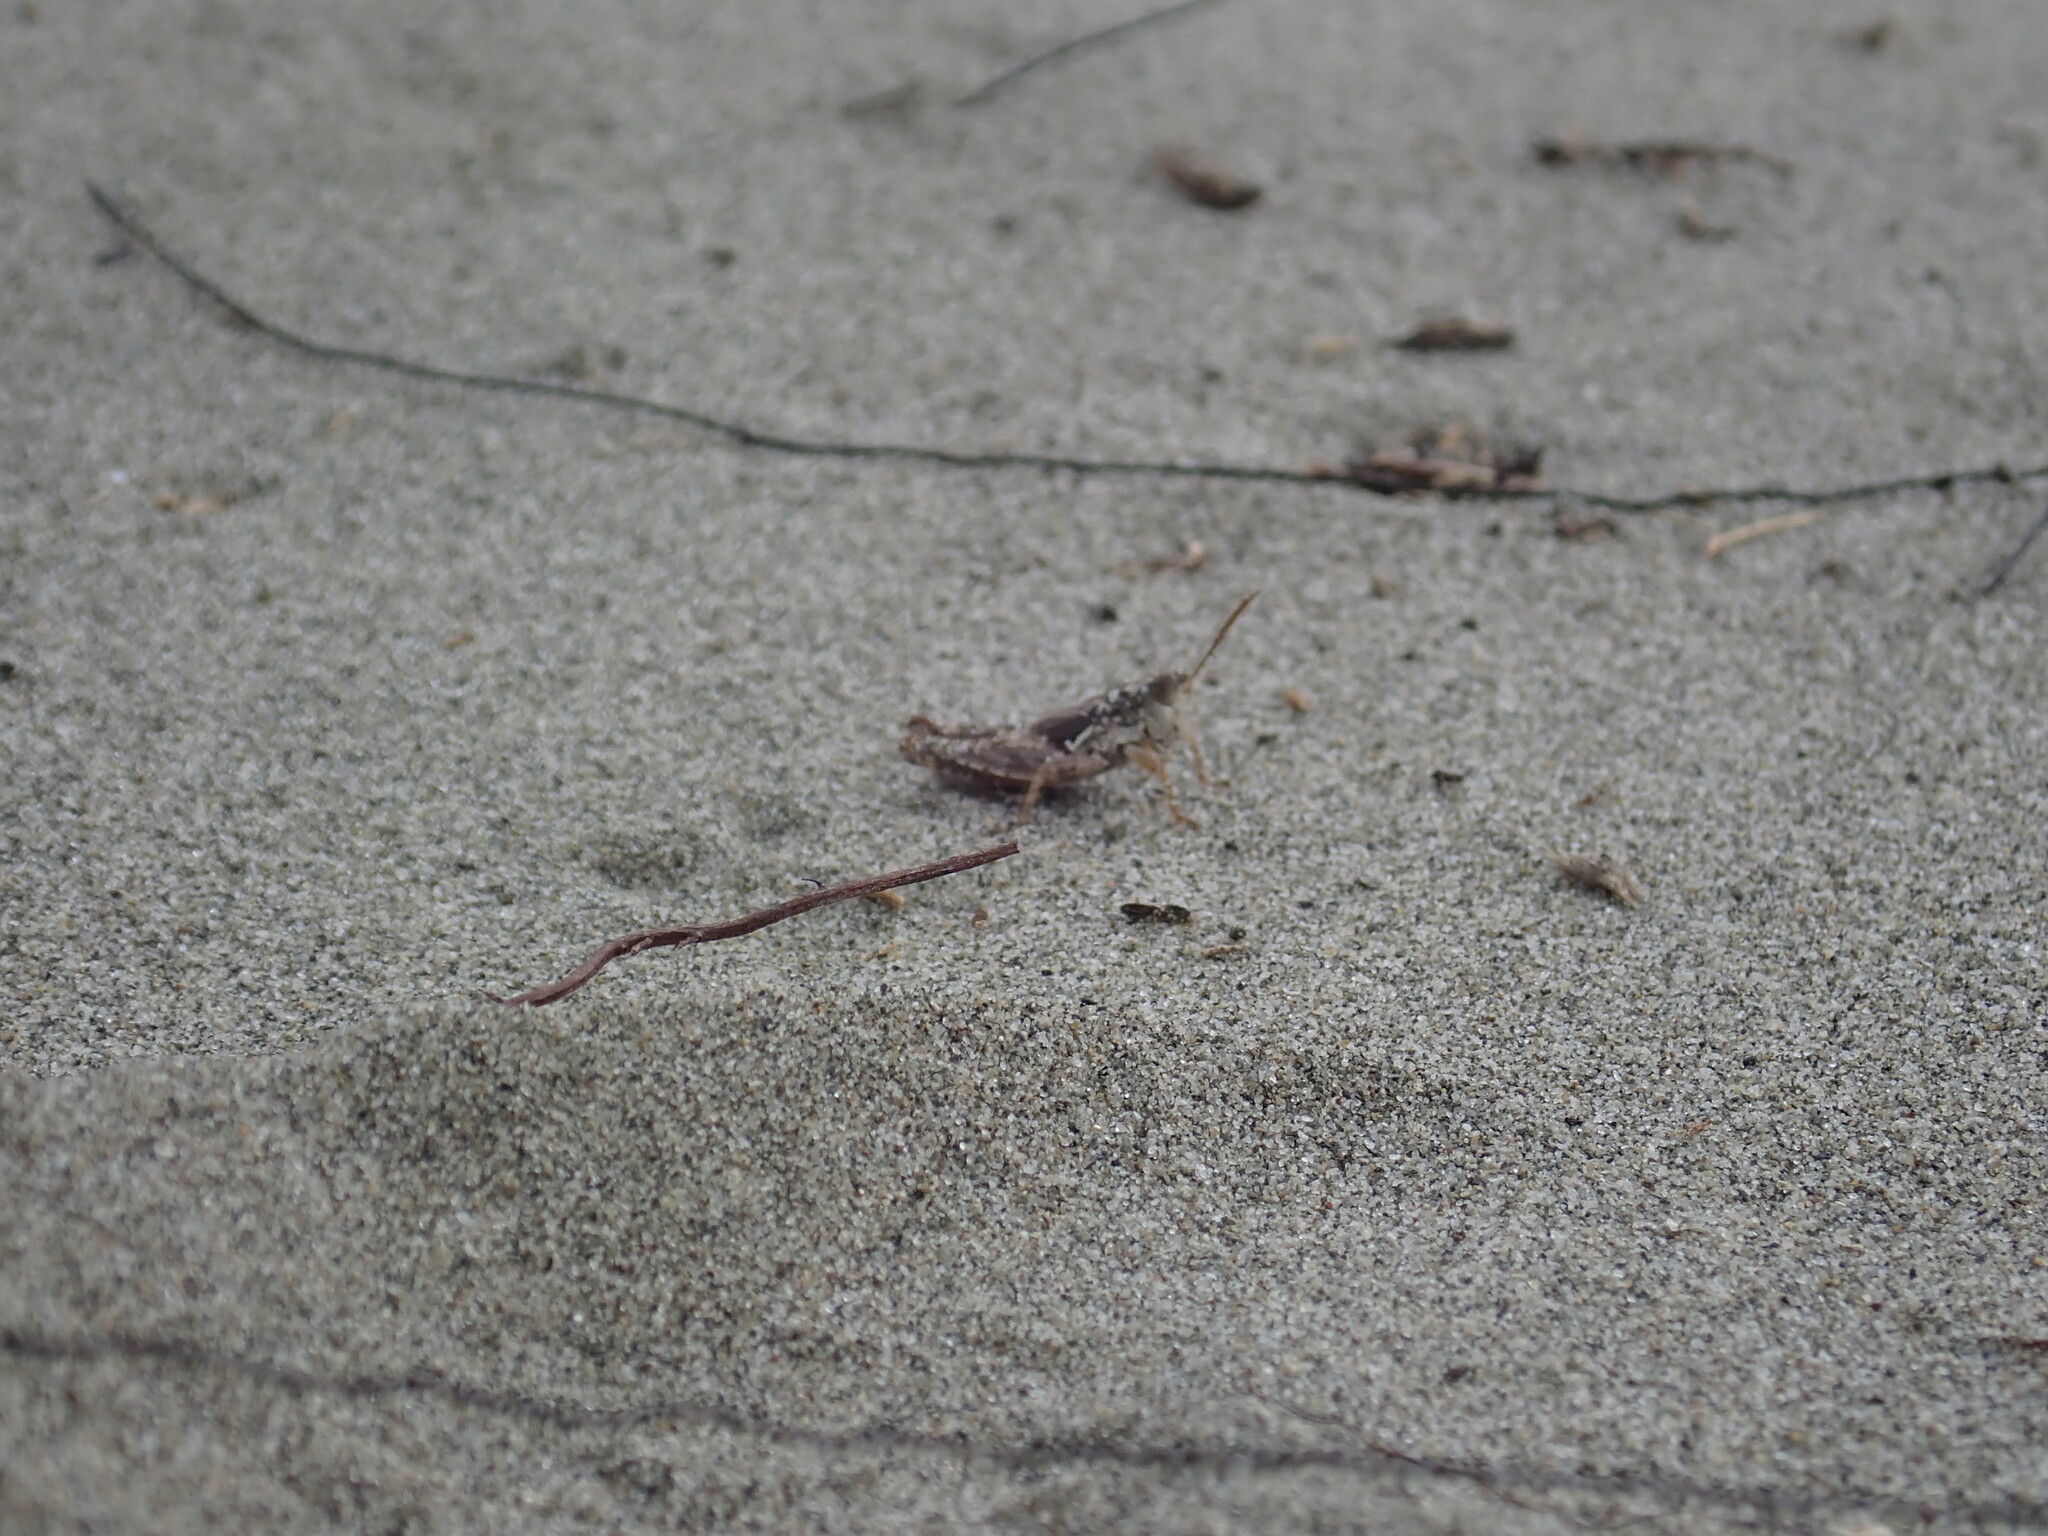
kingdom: Animalia
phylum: Arthropoda
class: Insecta
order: Orthoptera
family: Acrididae
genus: Phaulacridium
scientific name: Phaulacridium marginale
